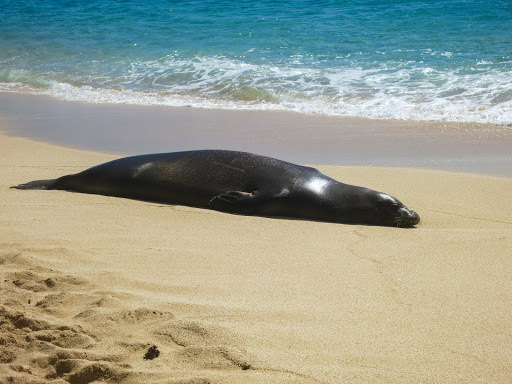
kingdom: Animalia
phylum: Chordata
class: Mammalia
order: Carnivora
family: Phocidae
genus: Neomonachus
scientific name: Neomonachus schauinslandi
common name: Hawaiian monk seal
